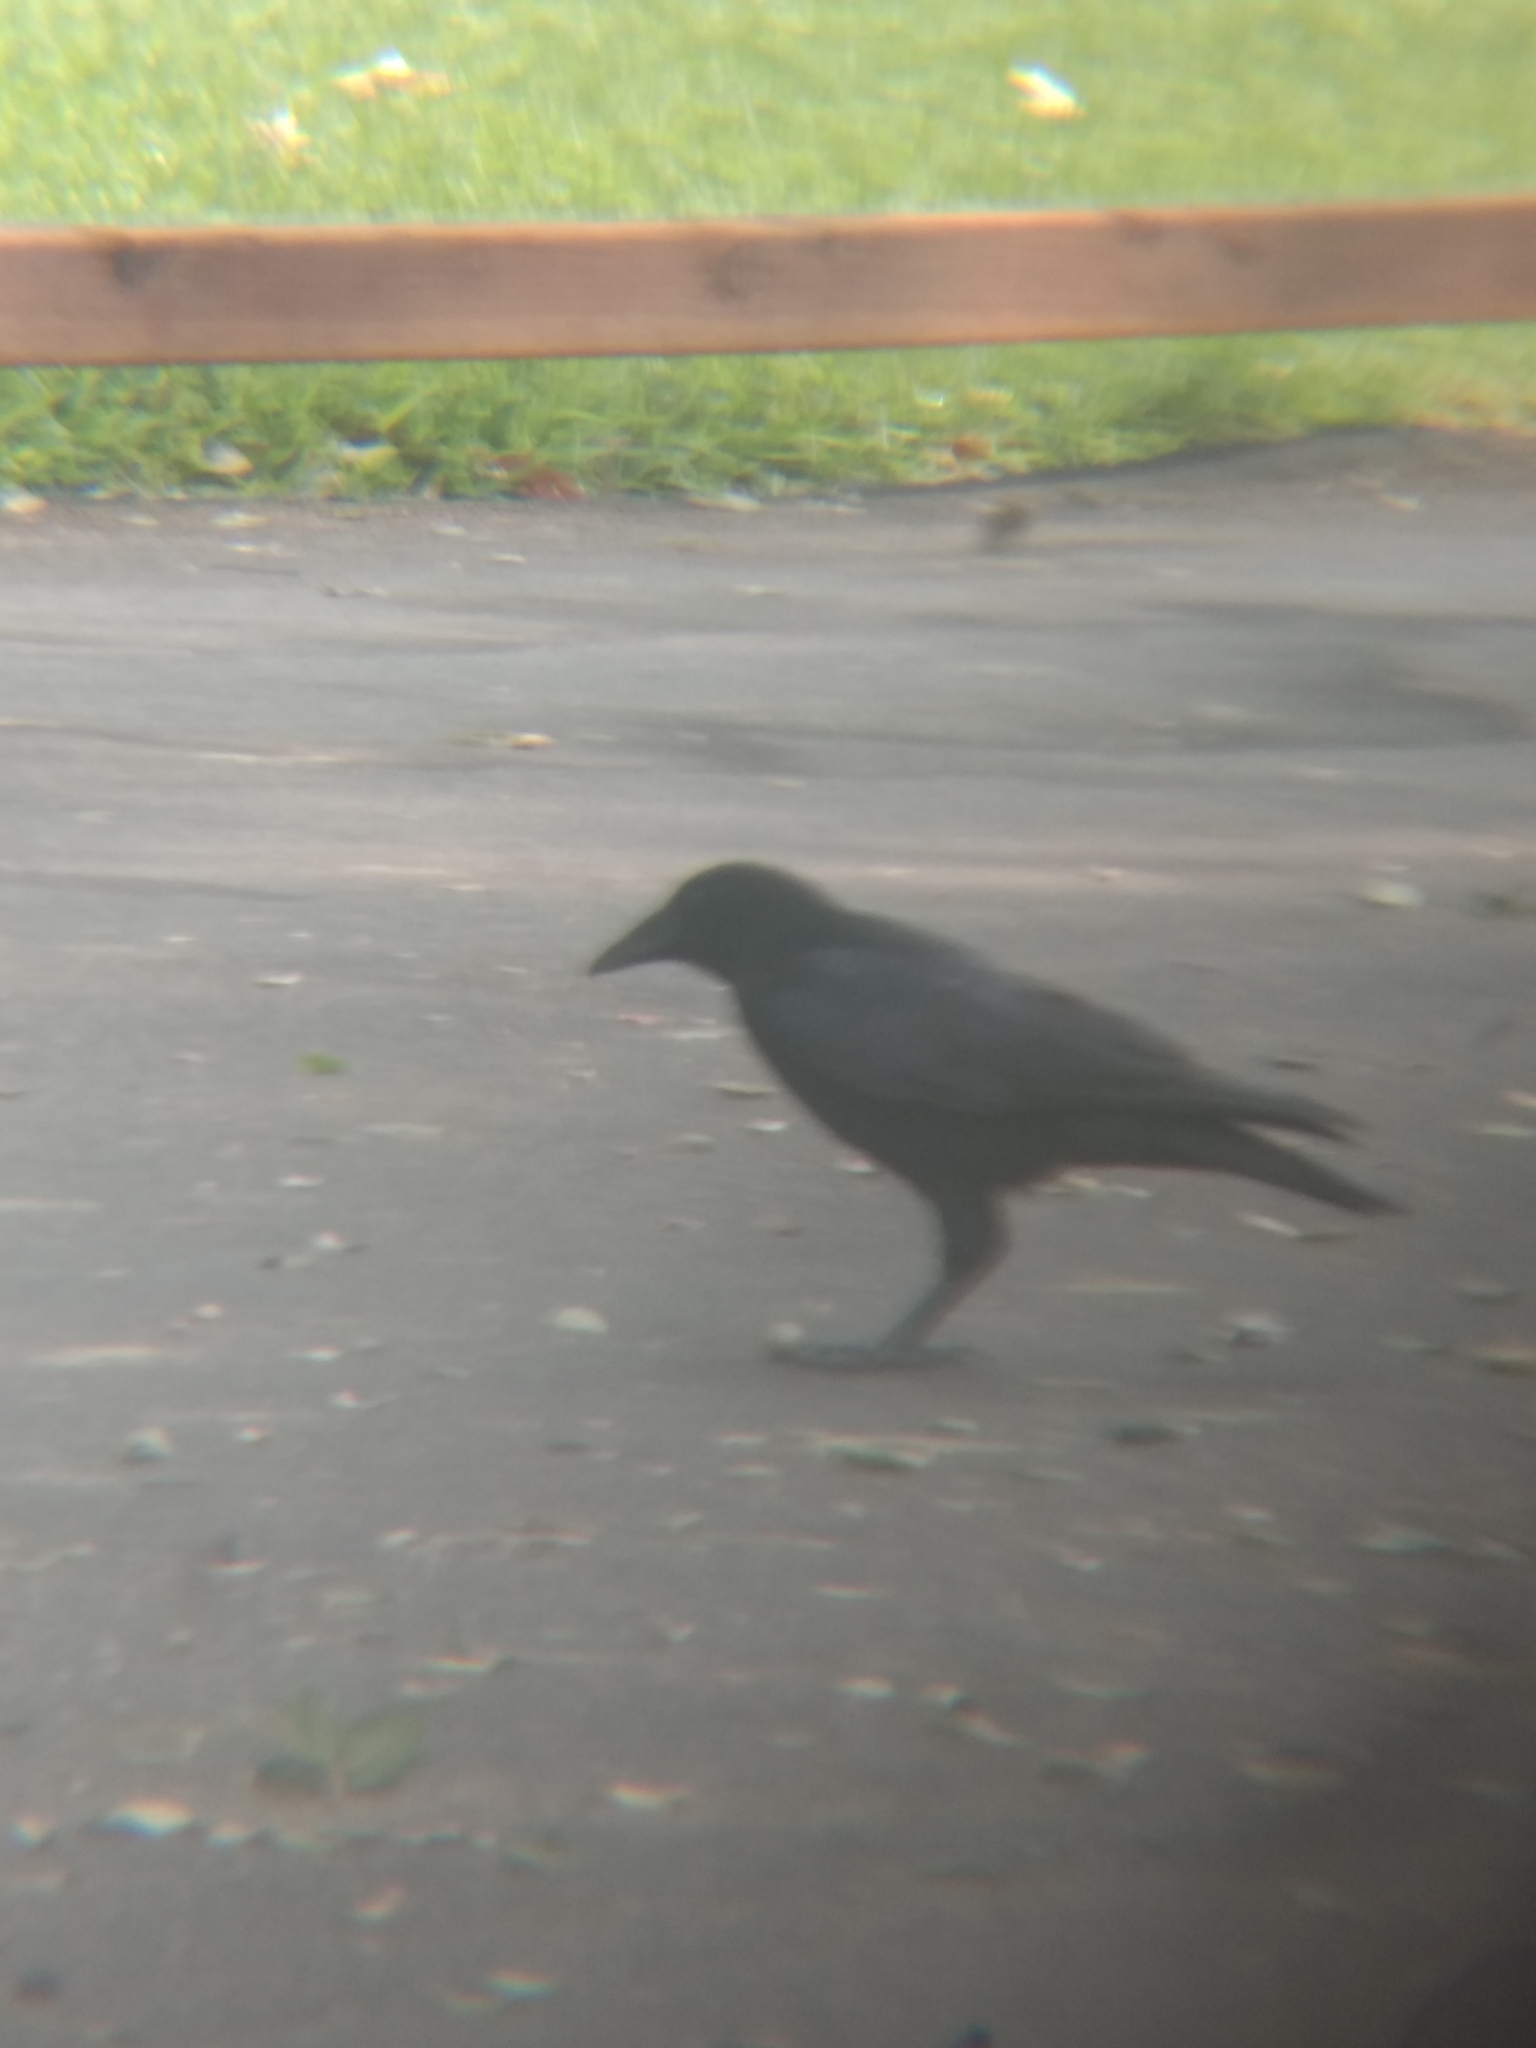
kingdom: Animalia
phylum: Chordata
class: Aves
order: Passeriformes
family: Corvidae
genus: Corvus
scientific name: Corvus brachyrhynchos
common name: American crow
